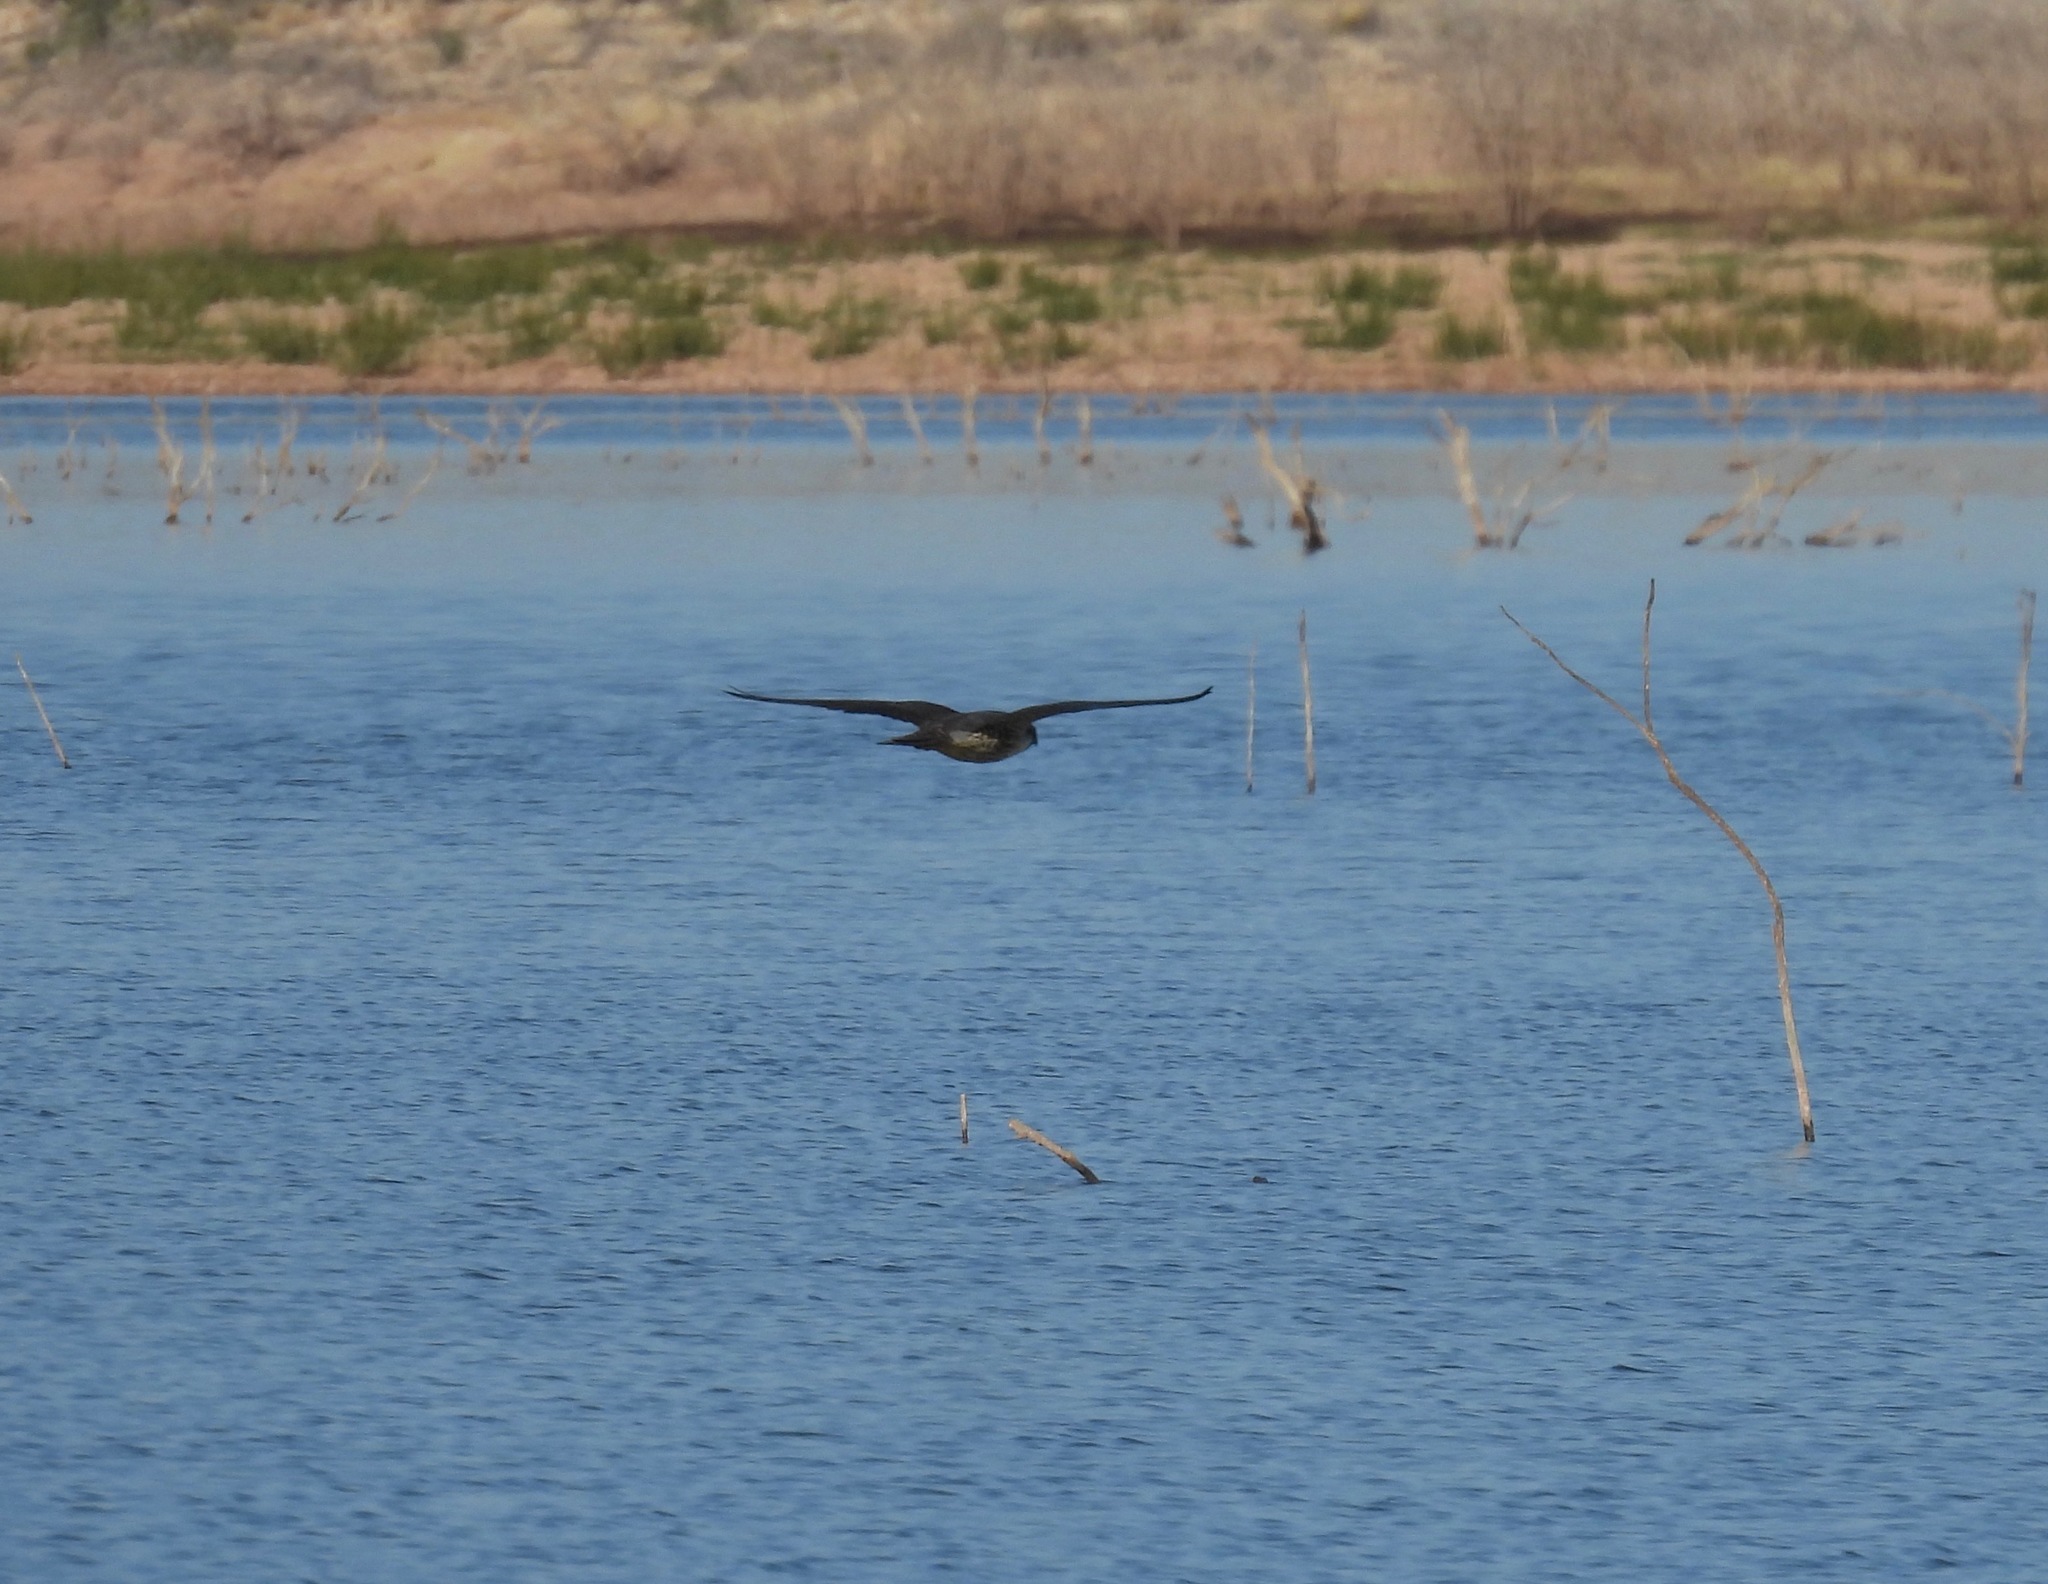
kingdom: Animalia
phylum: Chordata
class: Aves
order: Falconiformes
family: Falconidae
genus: Falco
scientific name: Falco peregrinus
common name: Peregrine falcon
